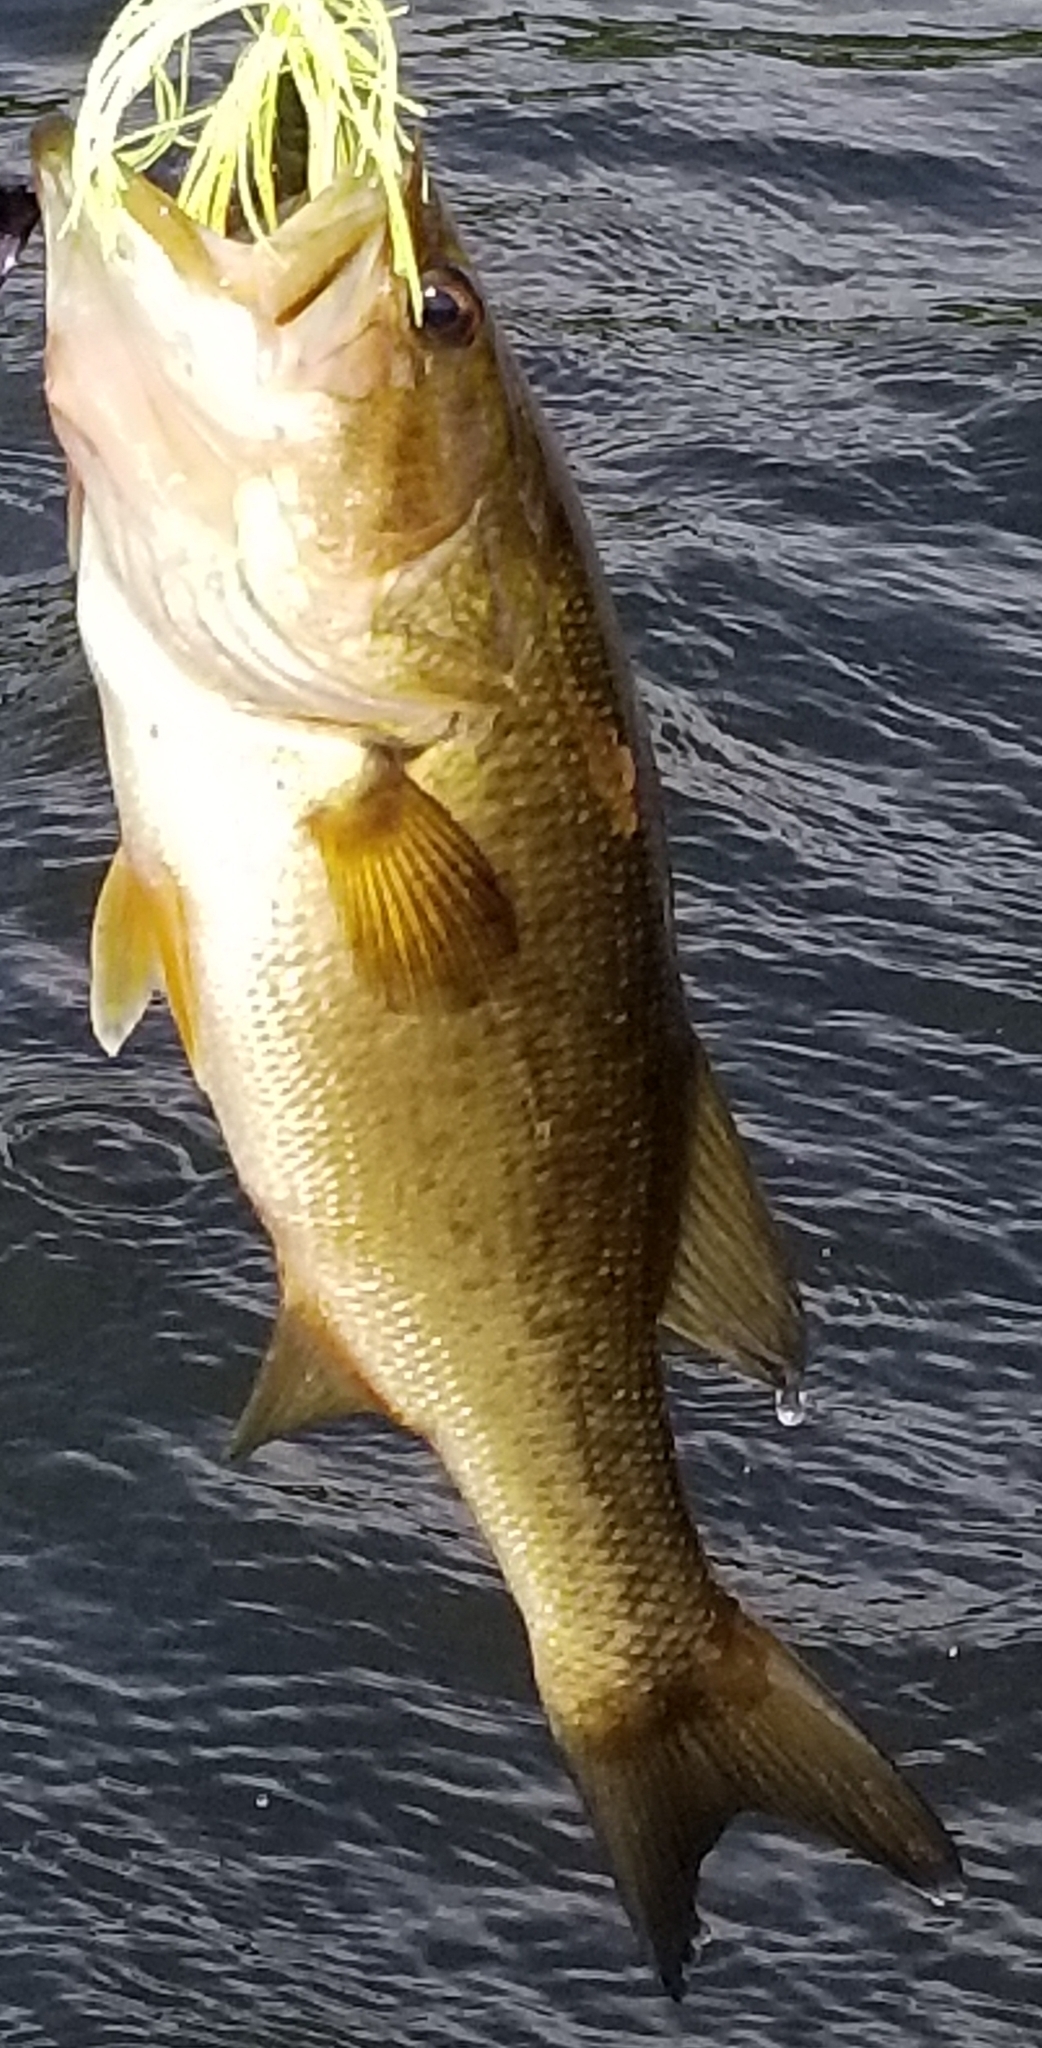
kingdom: Animalia
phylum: Chordata
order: Perciformes
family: Centrarchidae
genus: Micropterus
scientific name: Micropterus
